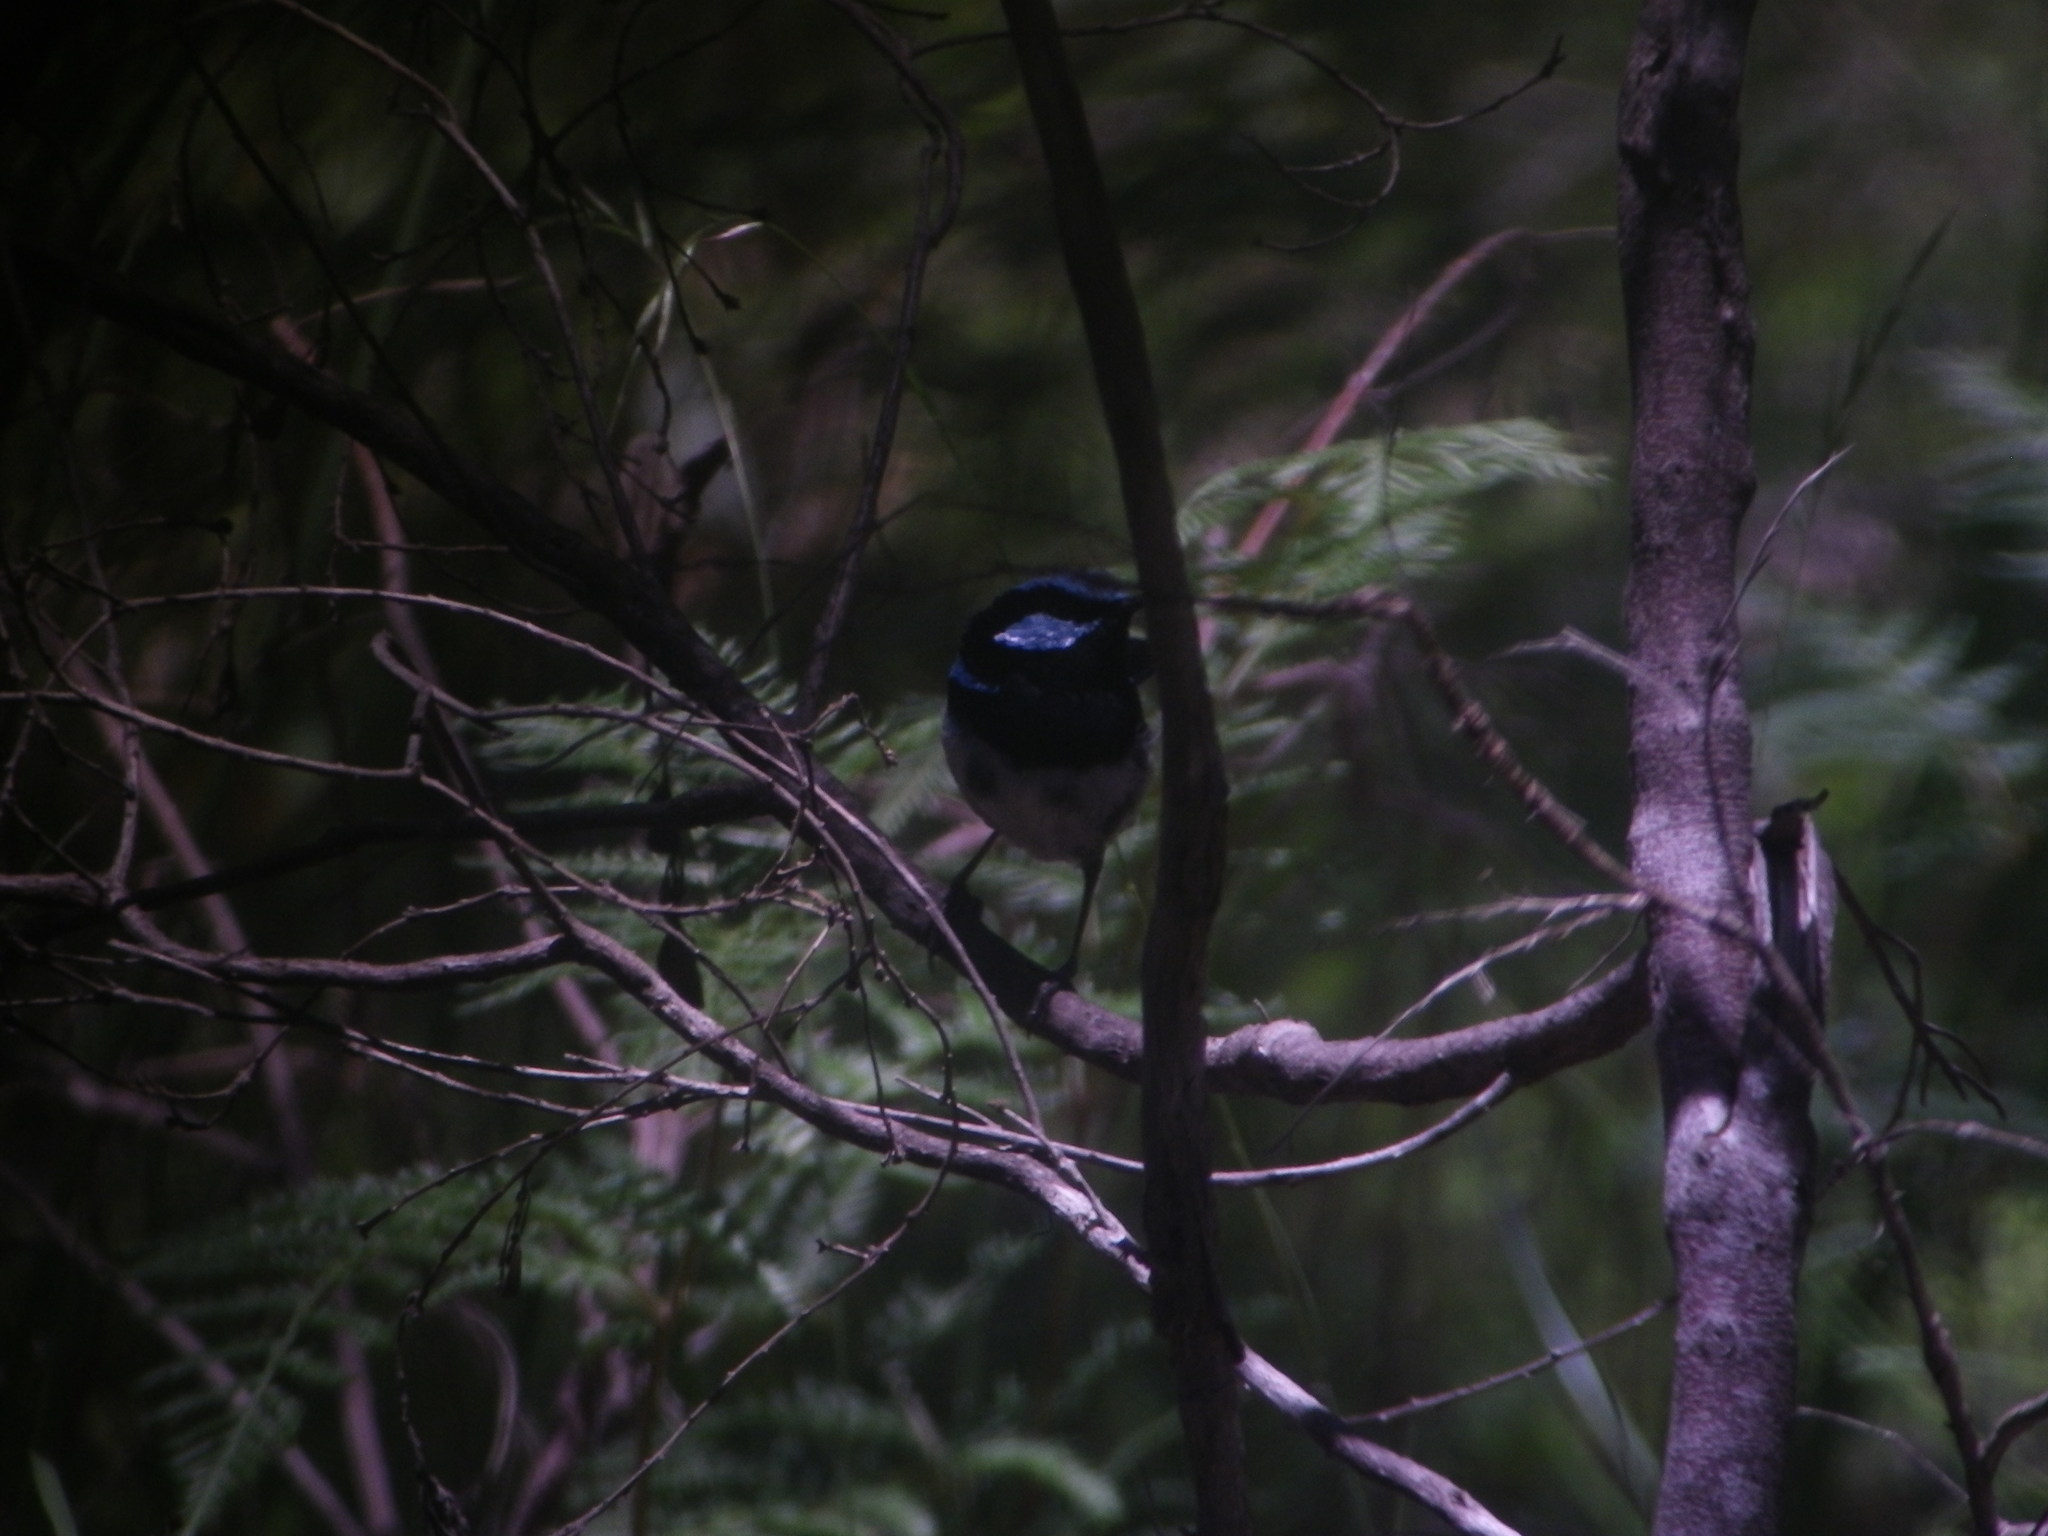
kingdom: Animalia
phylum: Chordata
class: Aves
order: Passeriformes
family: Maluridae
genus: Malurus
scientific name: Malurus cyaneus
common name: Superb fairywren
